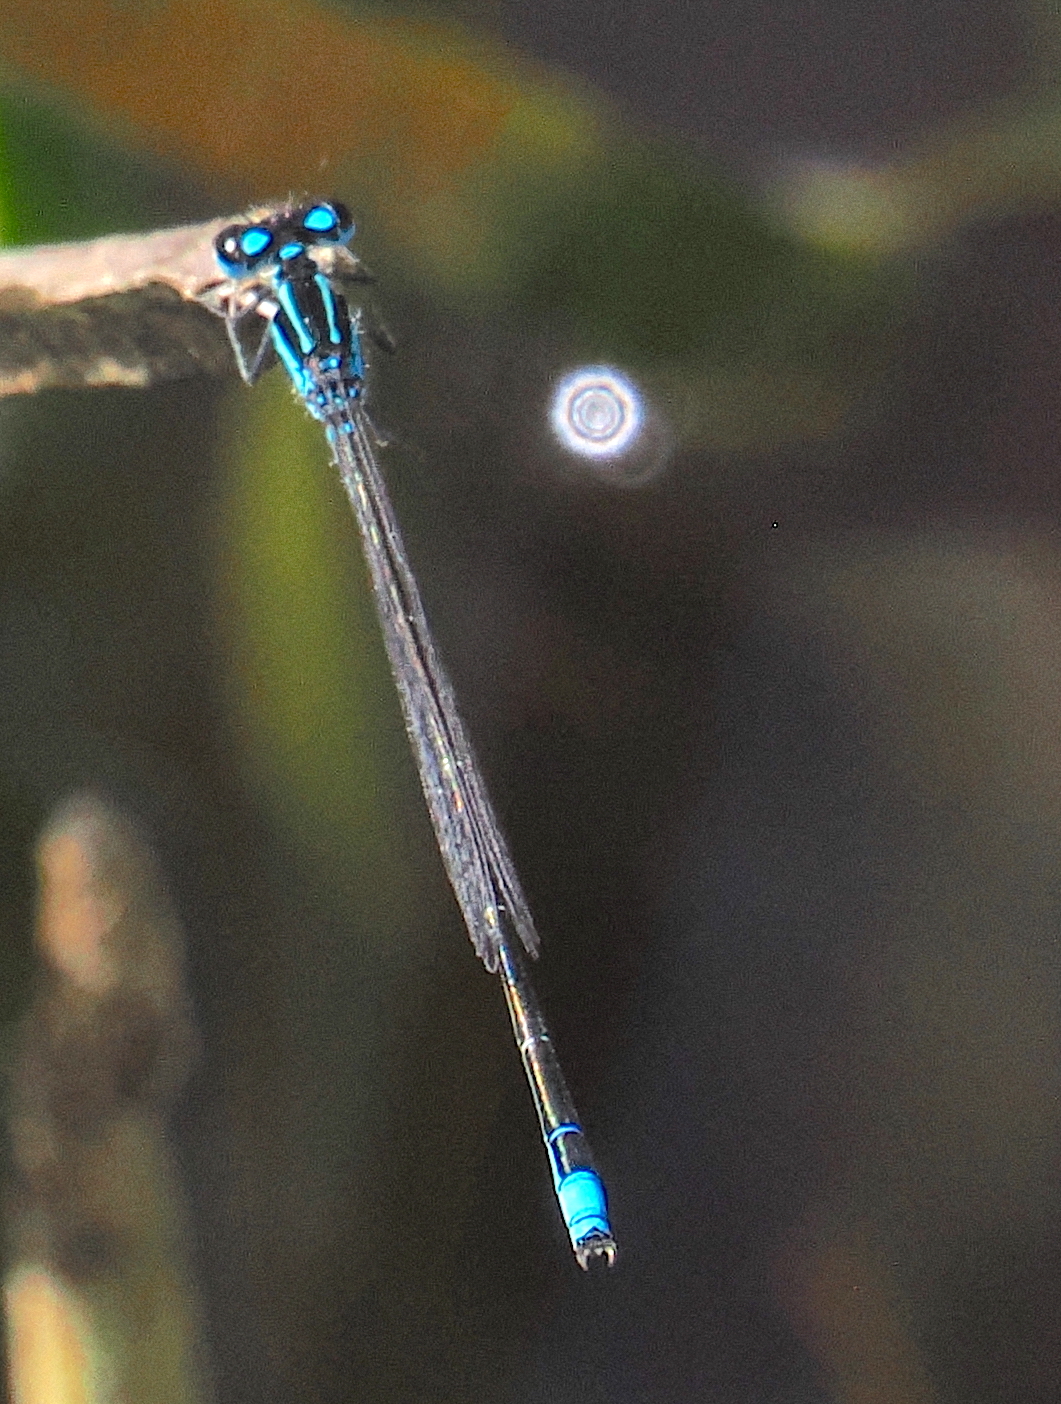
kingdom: Animalia
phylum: Arthropoda
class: Insecta
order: Odonata
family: Coenagrionidae
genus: Homeoura
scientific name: Homeoura chelifera
